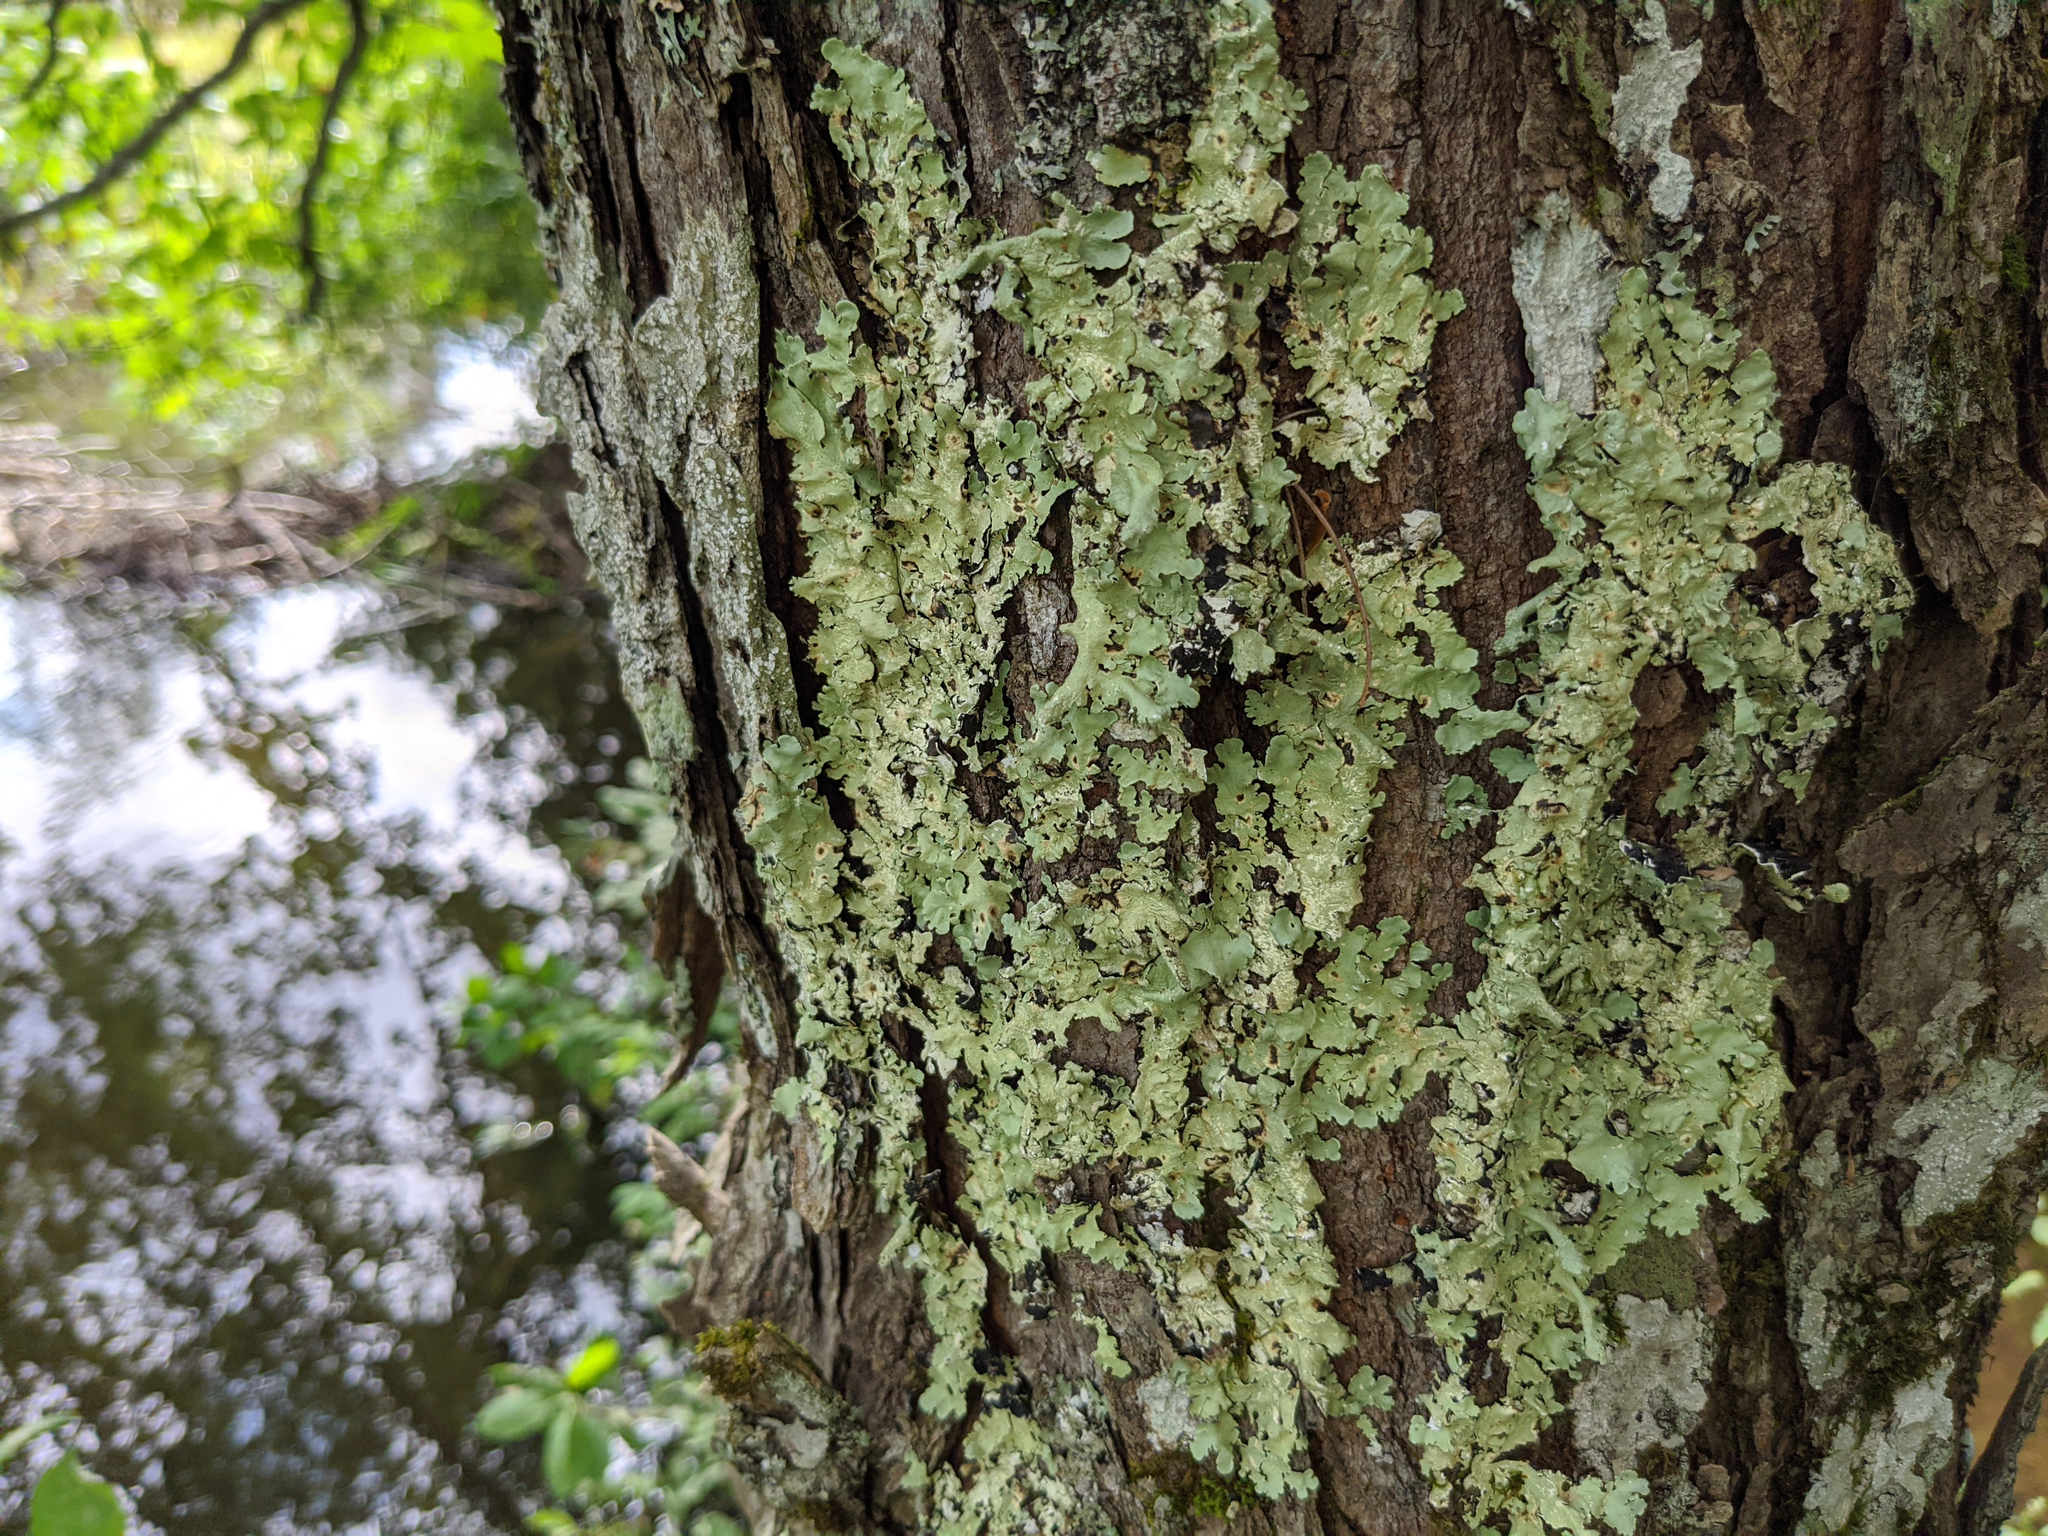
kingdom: Fungi
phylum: Ascomycota
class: Lecanoromycetes
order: Lecanorales
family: Parmeliaceae
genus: Flavoparmelia
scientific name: Flavoparmelia caperata
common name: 40-mile per hour lichen
